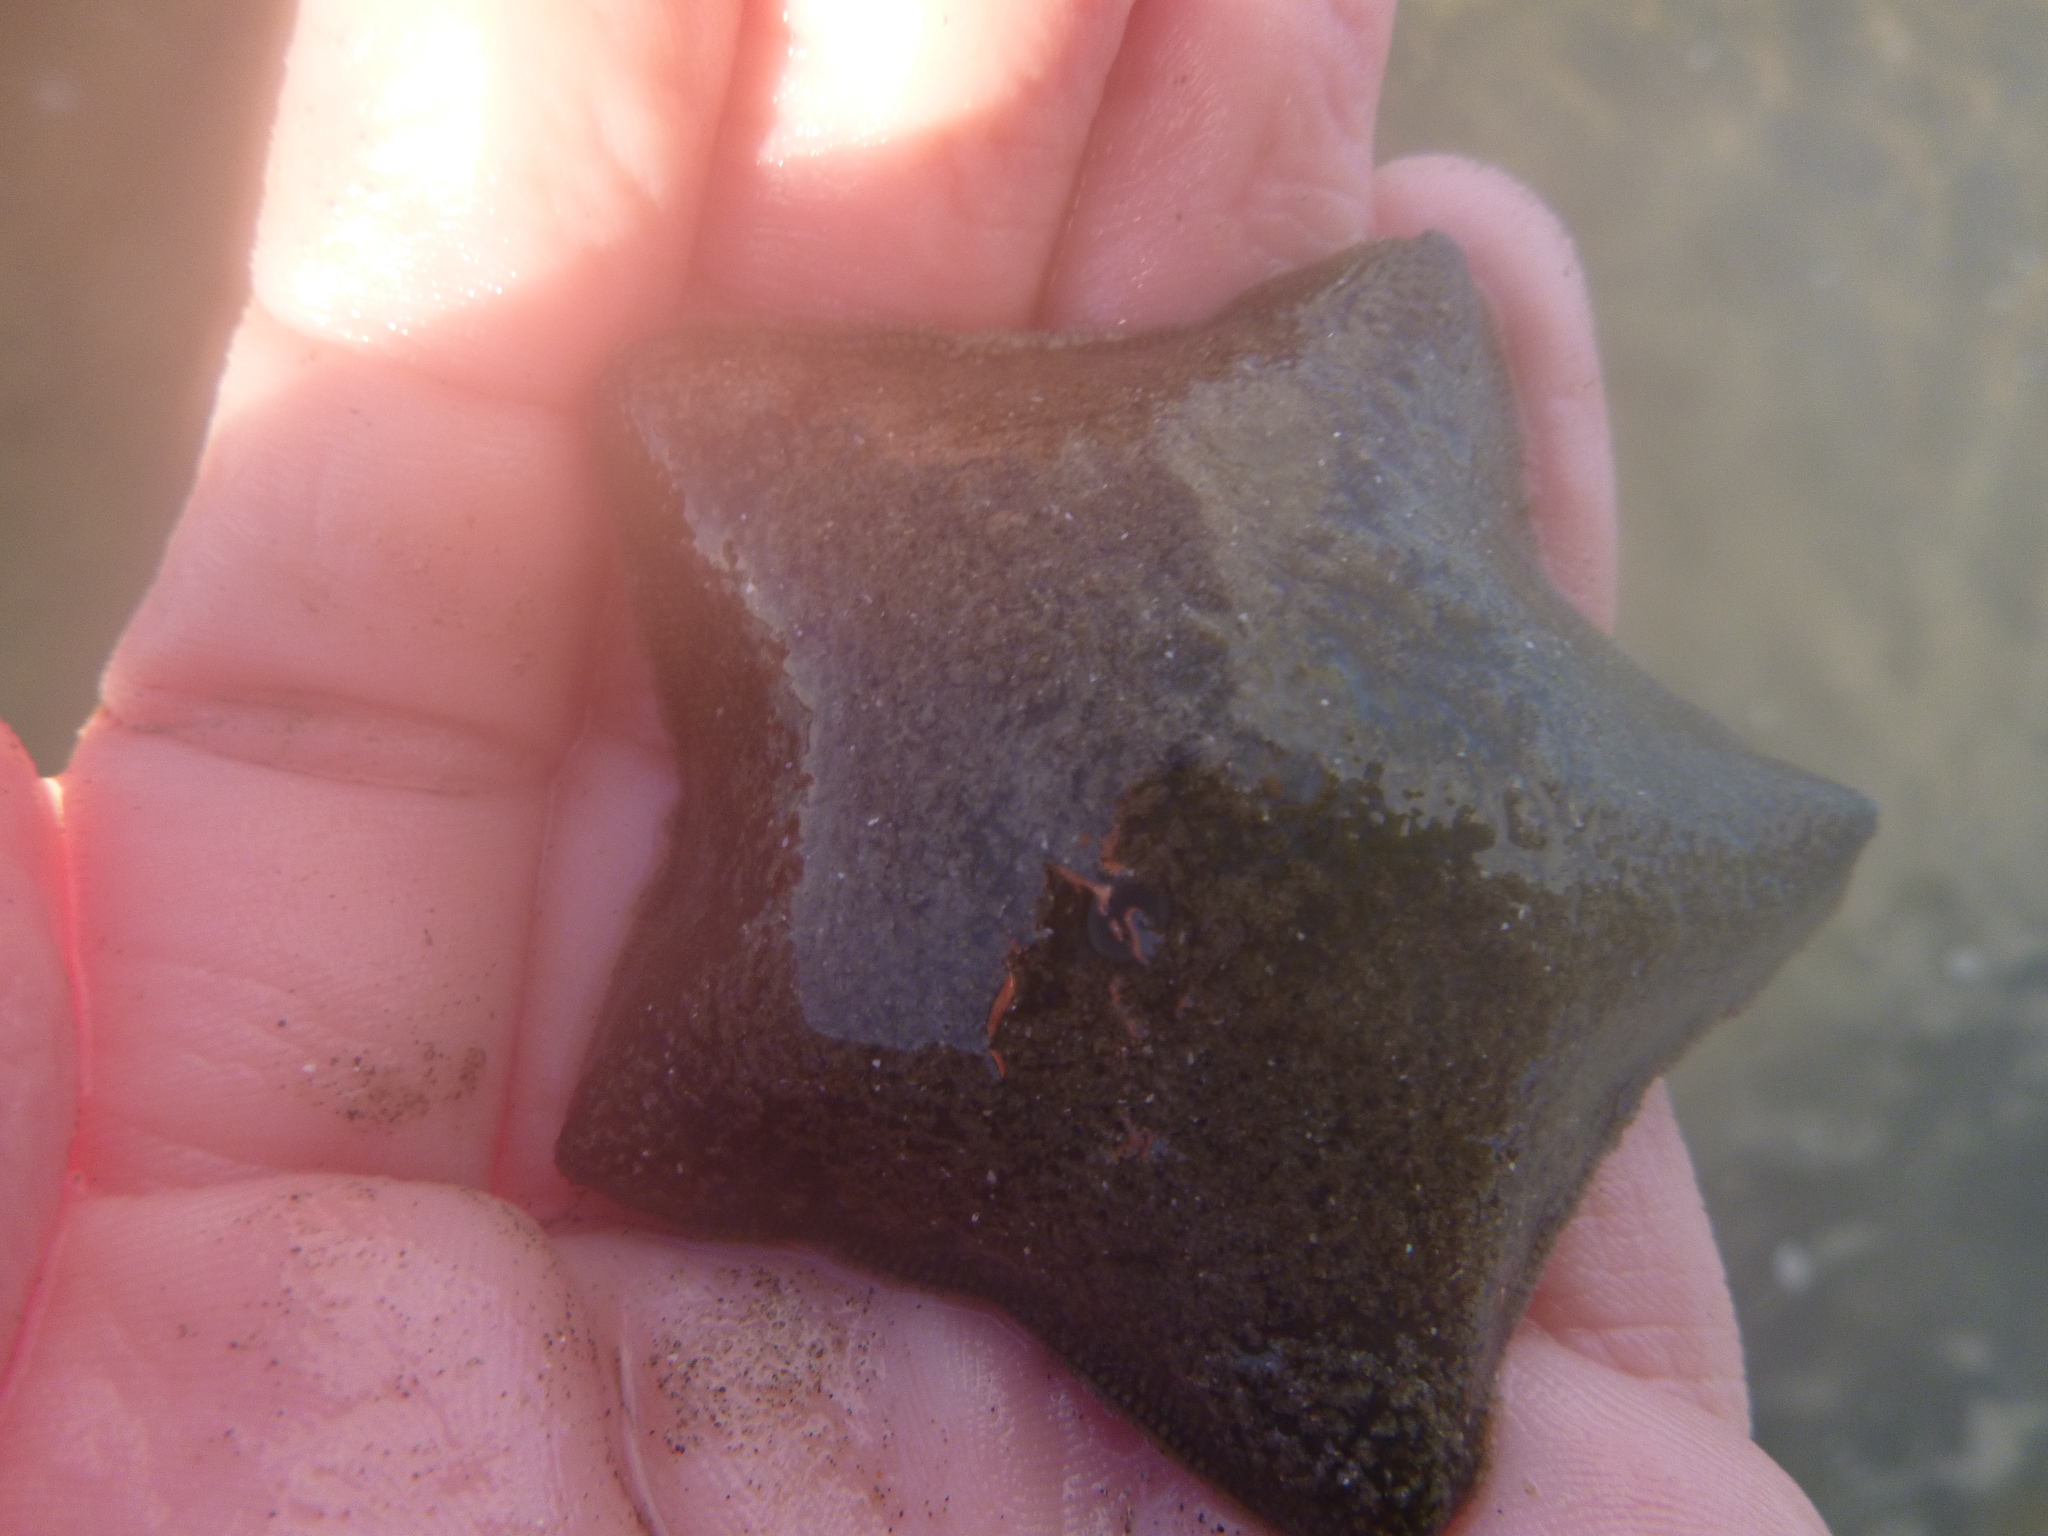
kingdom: Animalia
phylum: Echinodermata
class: Asteroidea
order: Valvatida
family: Asterinidae
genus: Patiriella
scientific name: Patiriella regularis
